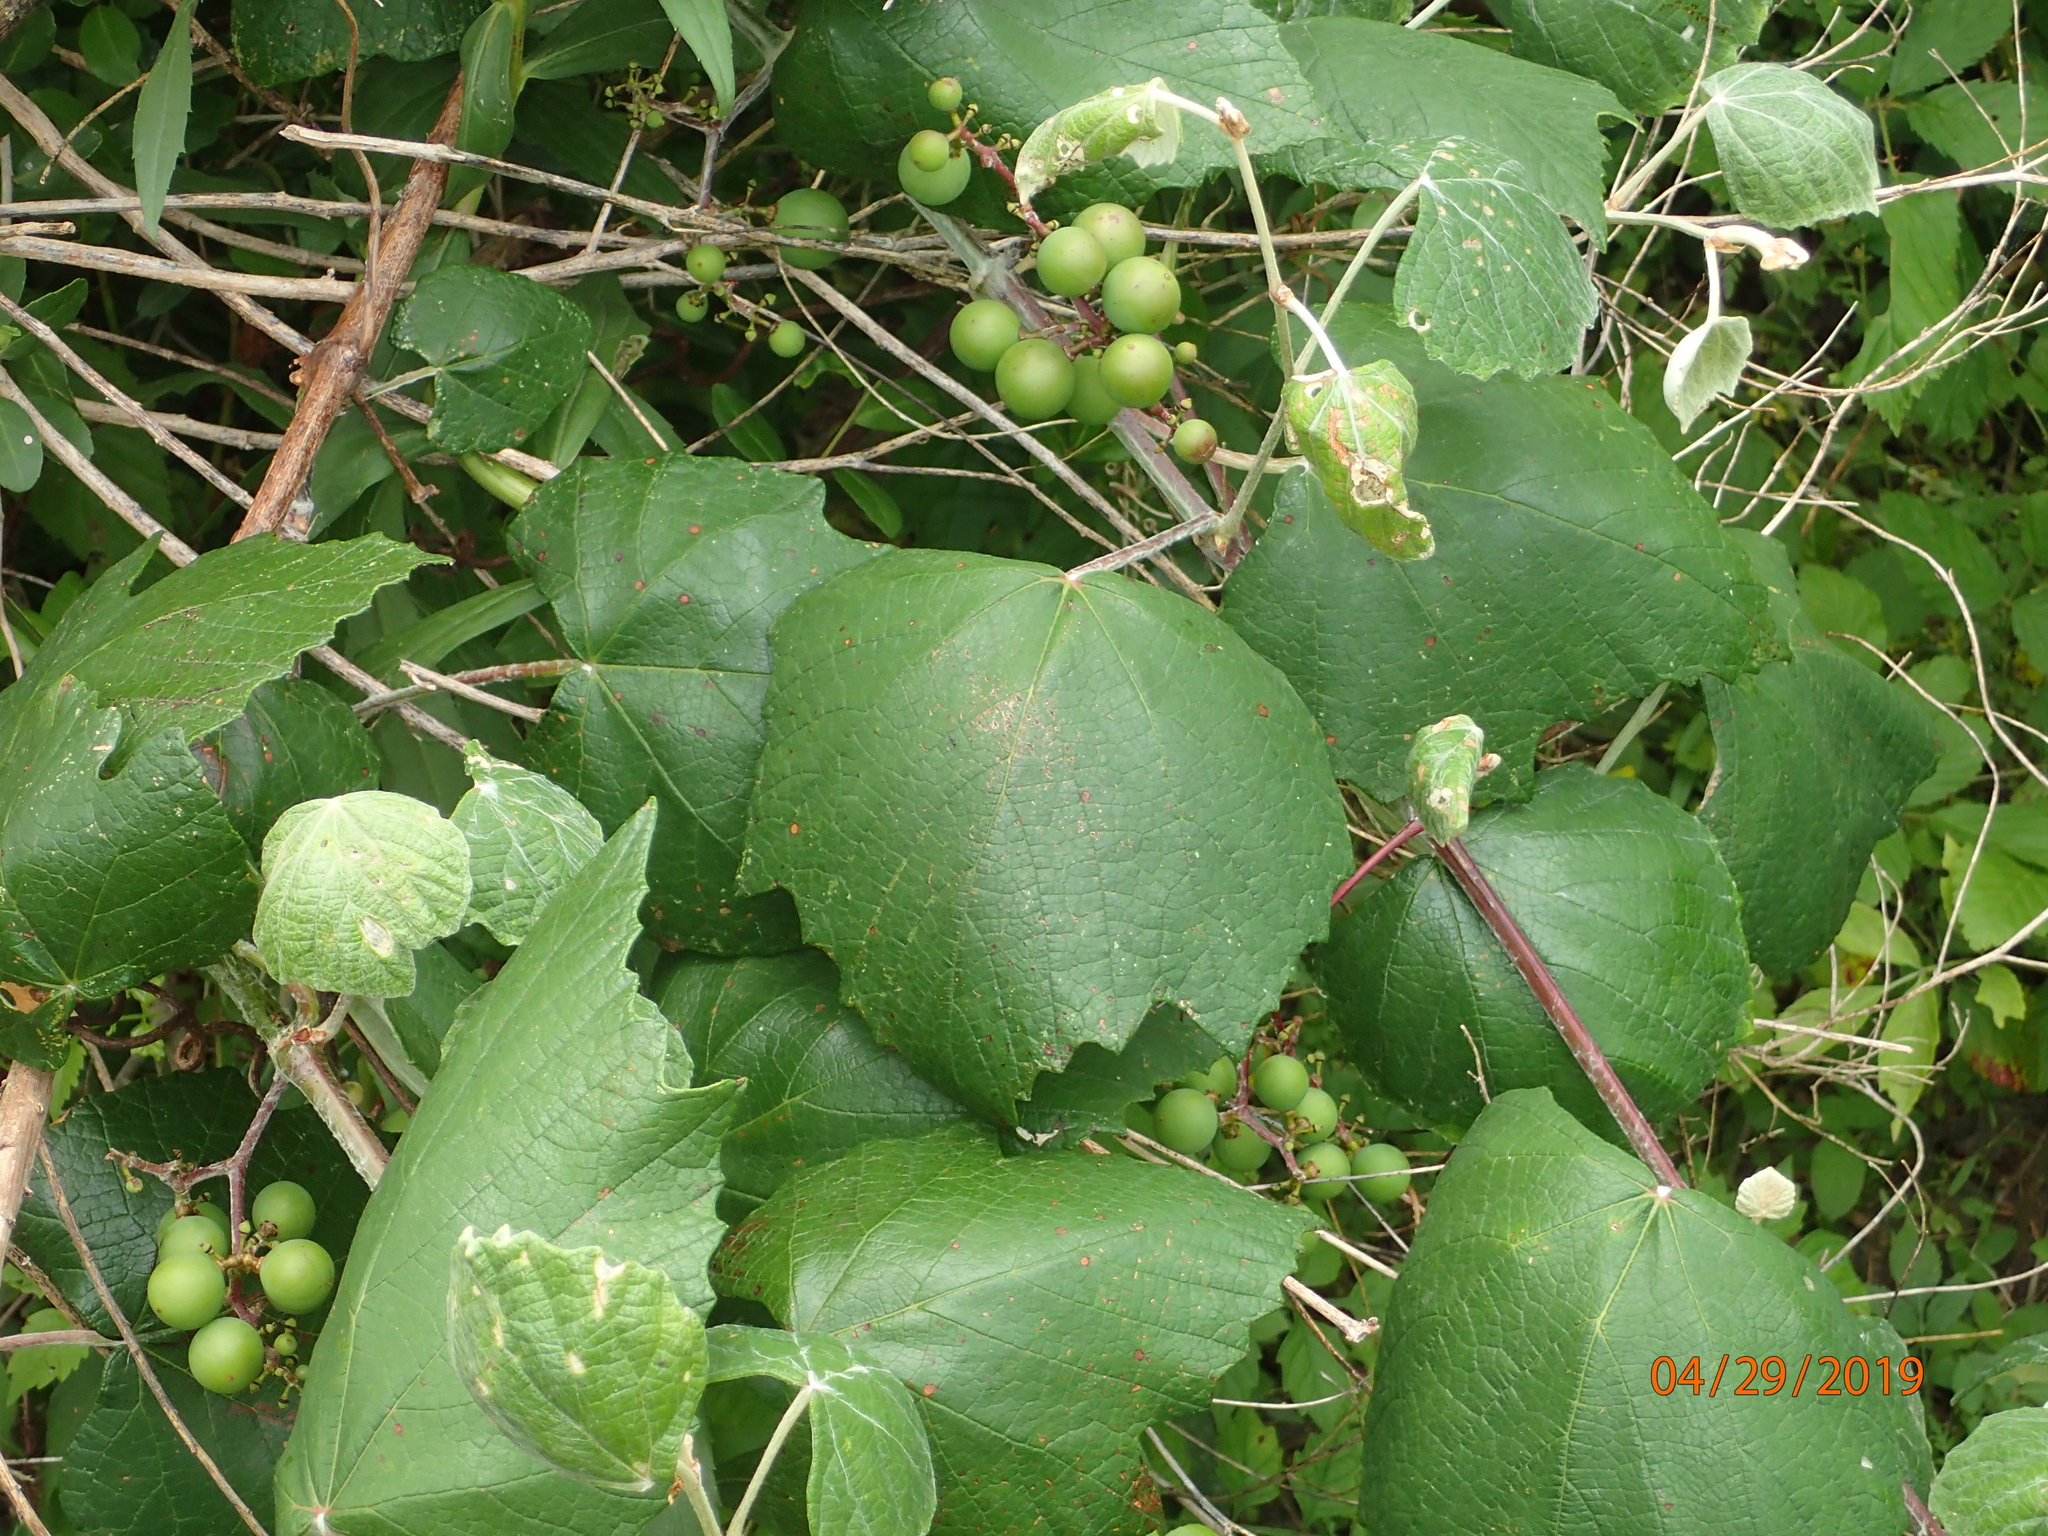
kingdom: Plantae
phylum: Tracheophyta
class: Magnoliopsida
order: Vitales
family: Vitaceae
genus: Vitis
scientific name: Vitis mustangensis
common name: Mustang grape
